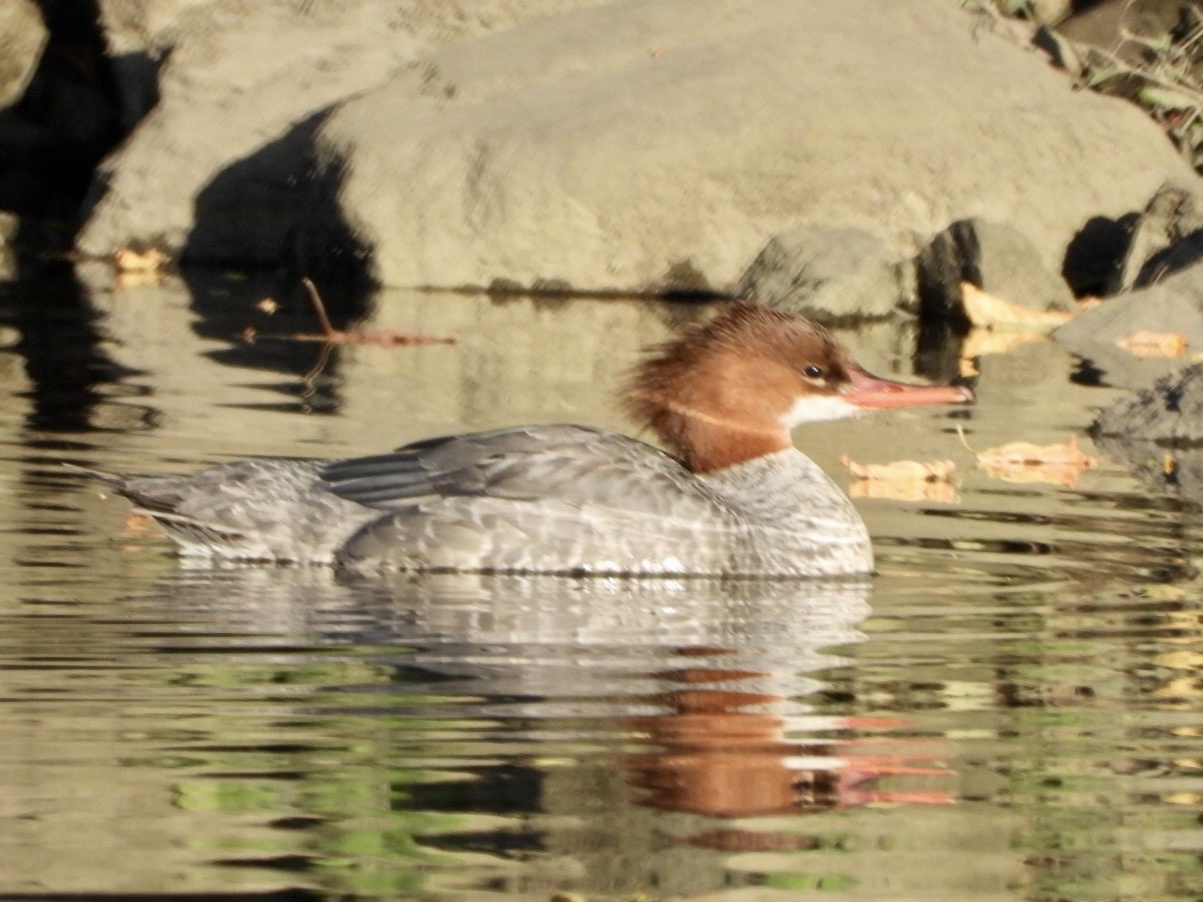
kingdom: Animalia
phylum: Chordata
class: Aves
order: Anseriformes
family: Anatidae
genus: Mergus
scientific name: Mergus merganser
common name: Common merganser
